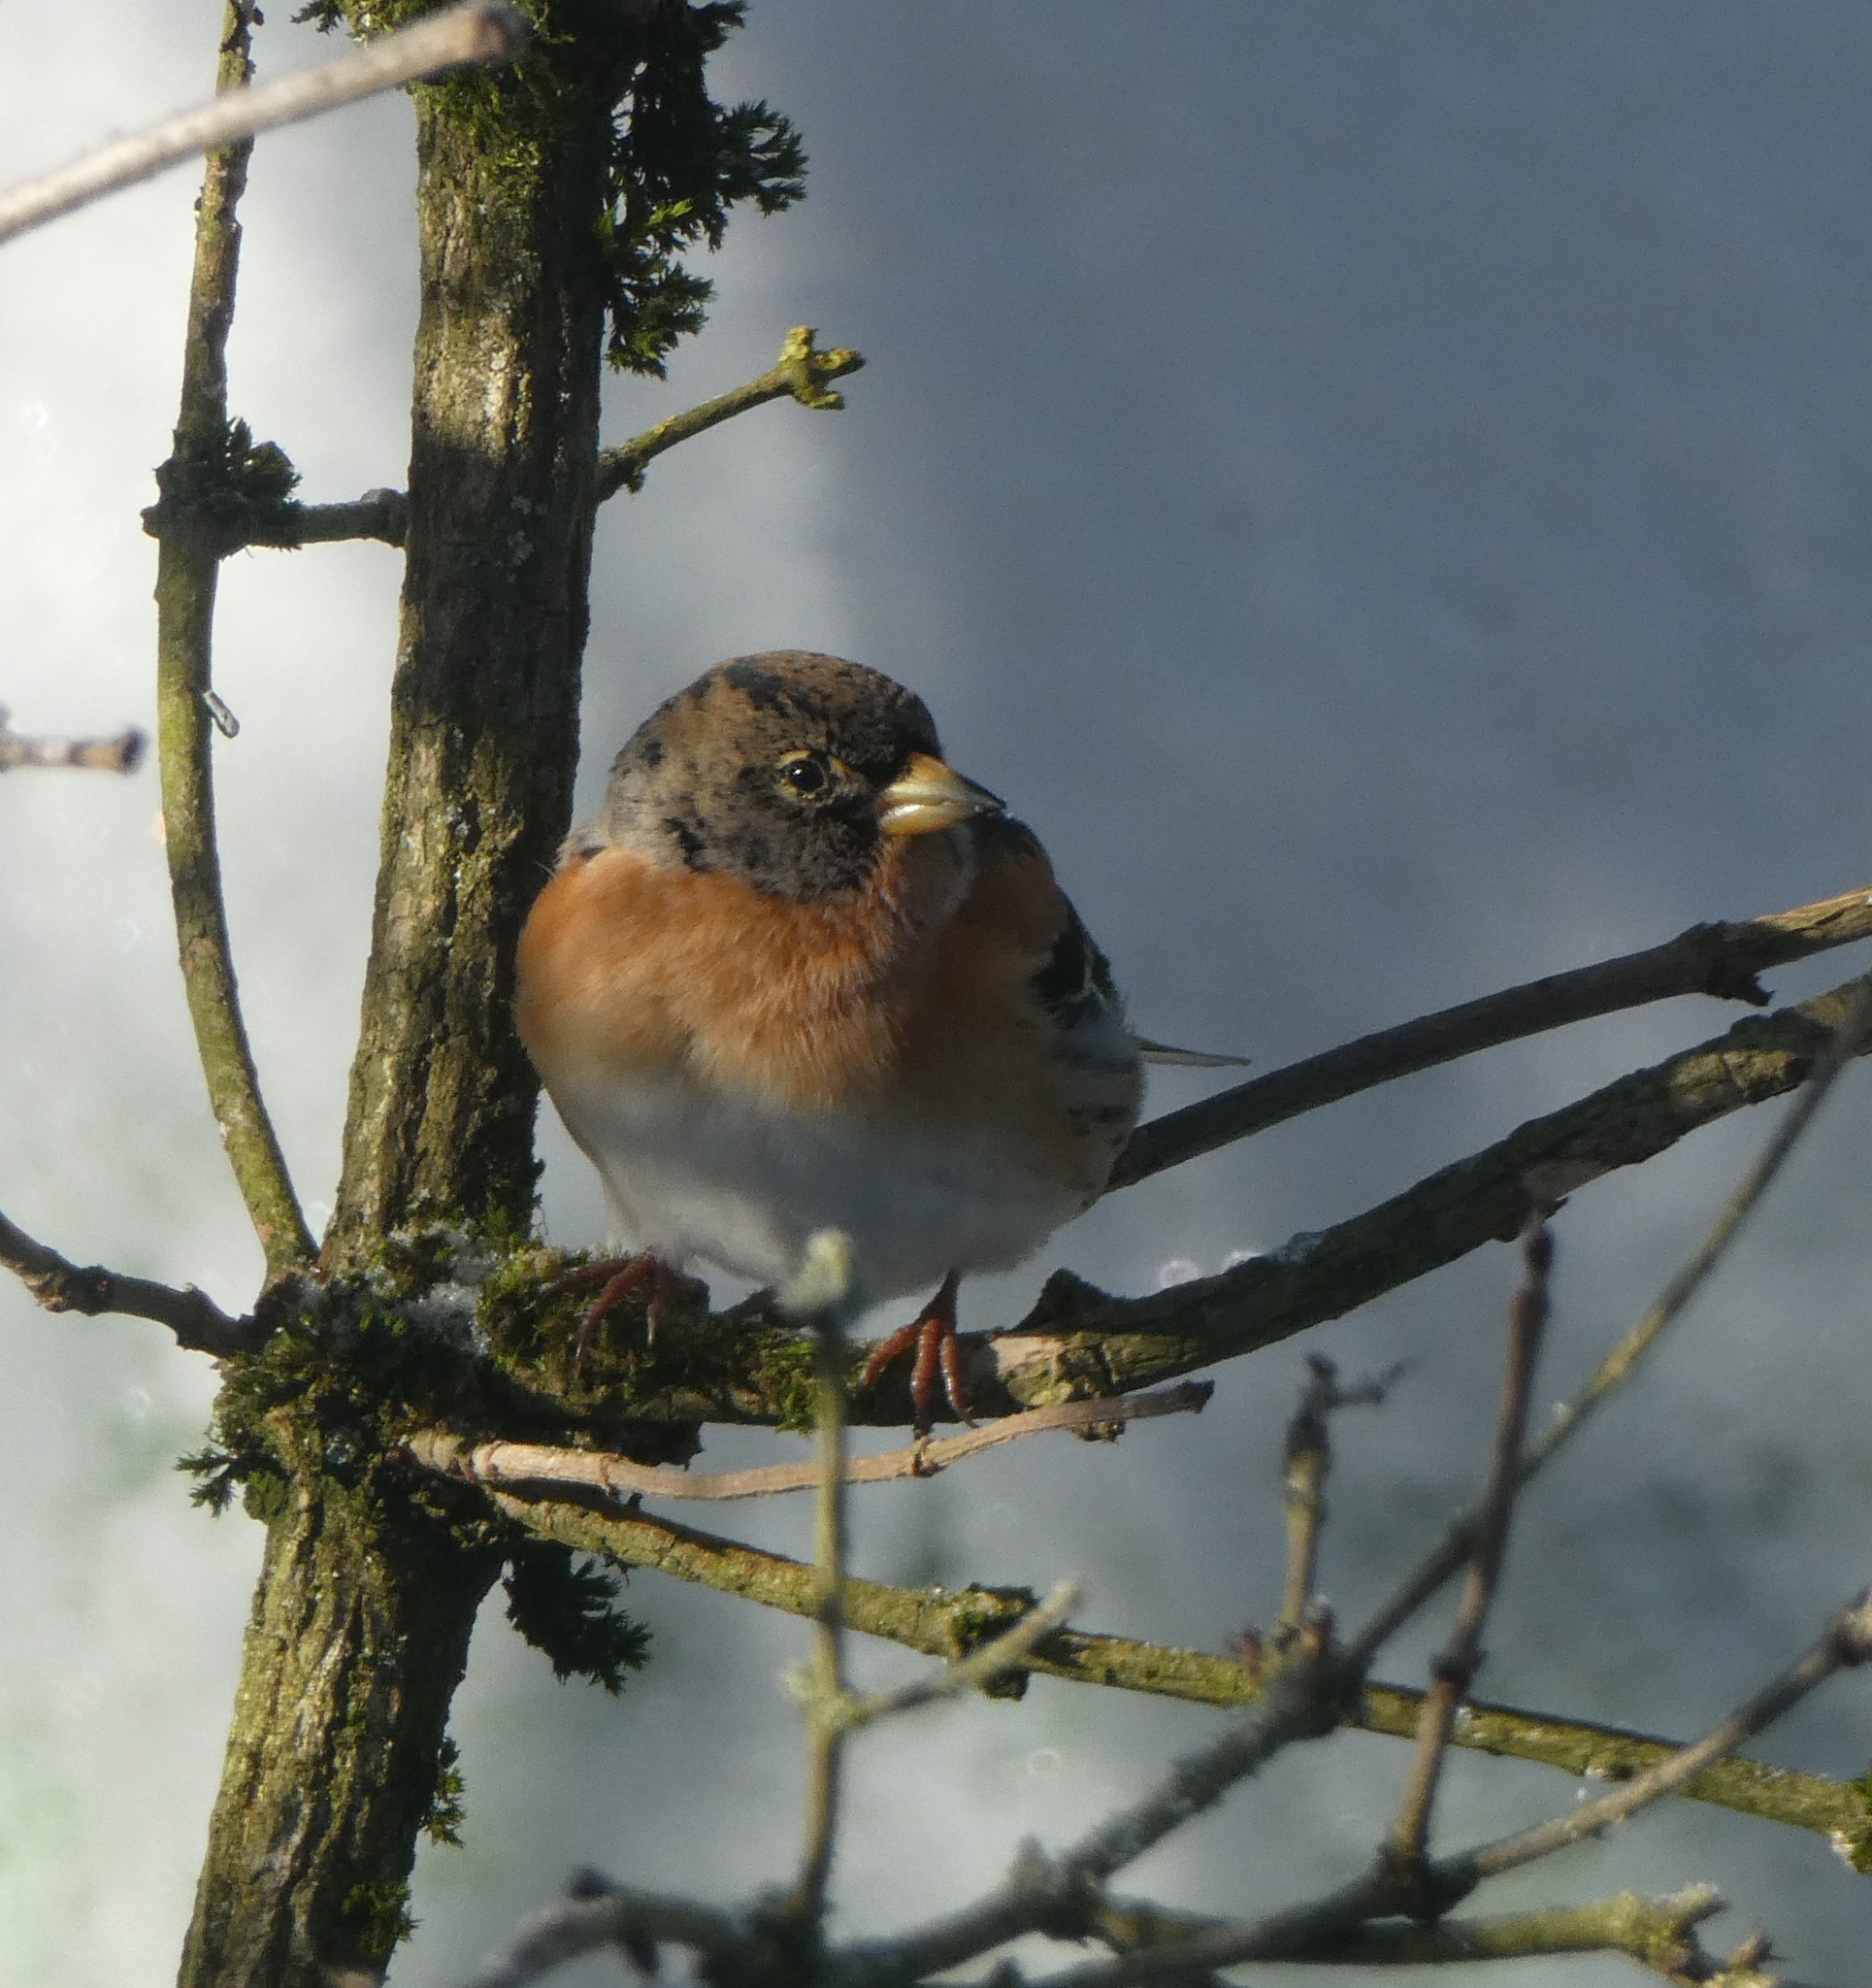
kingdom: Animalia
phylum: Chordata
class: Aves
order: Passeriformes
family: Fringillidae
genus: Fringilla
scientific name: Fringilla montifringilla
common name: Brambling
